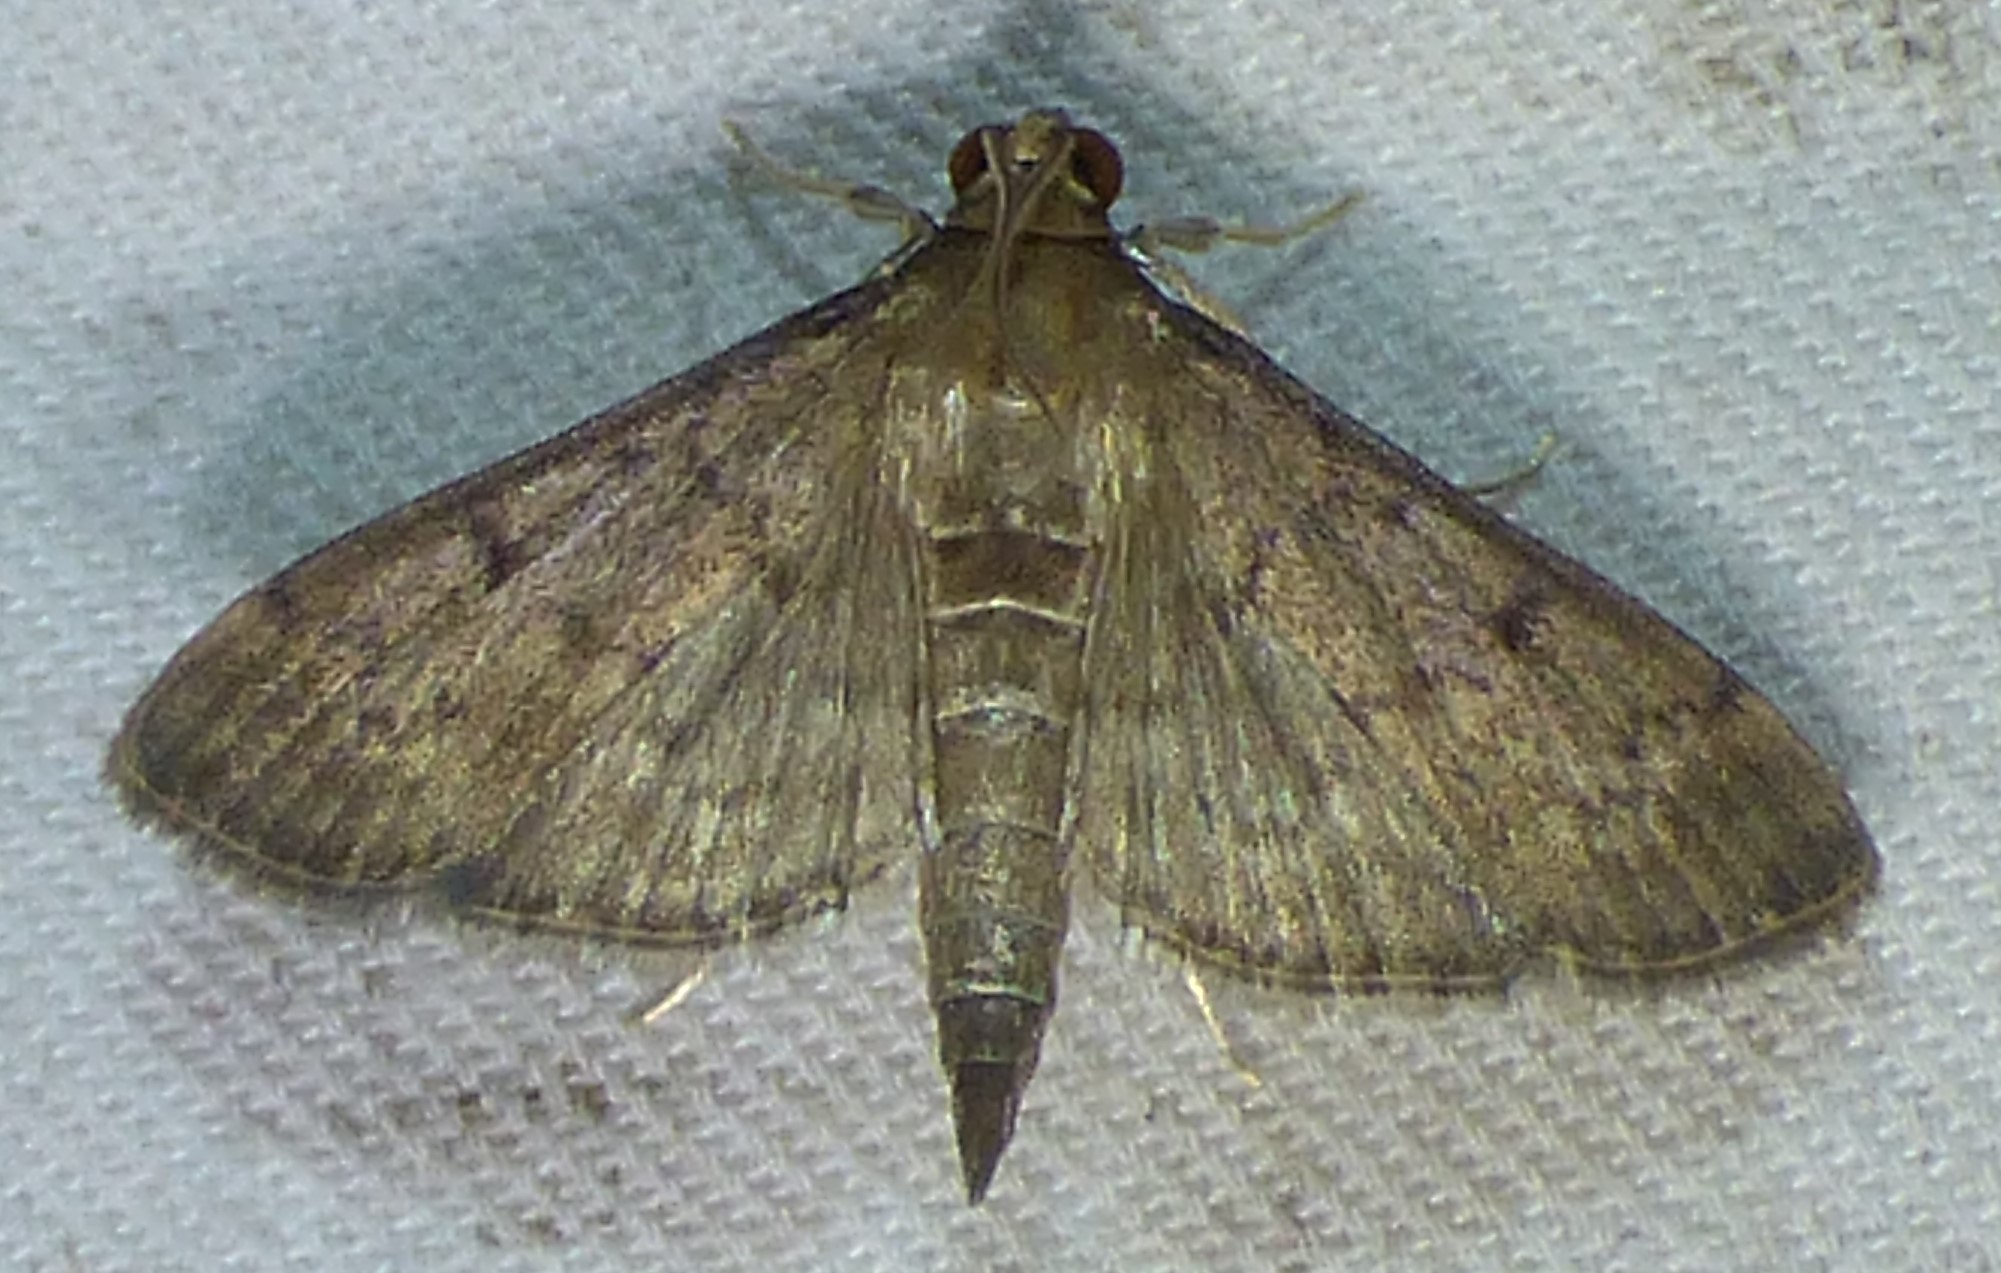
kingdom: Animalia
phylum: Arthropoda
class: Insecta
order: Lepidoptera
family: Crambidae
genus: Herpetogramma
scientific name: Herpetogramma phaeopteralis
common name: Dusky herpetogramma moth
